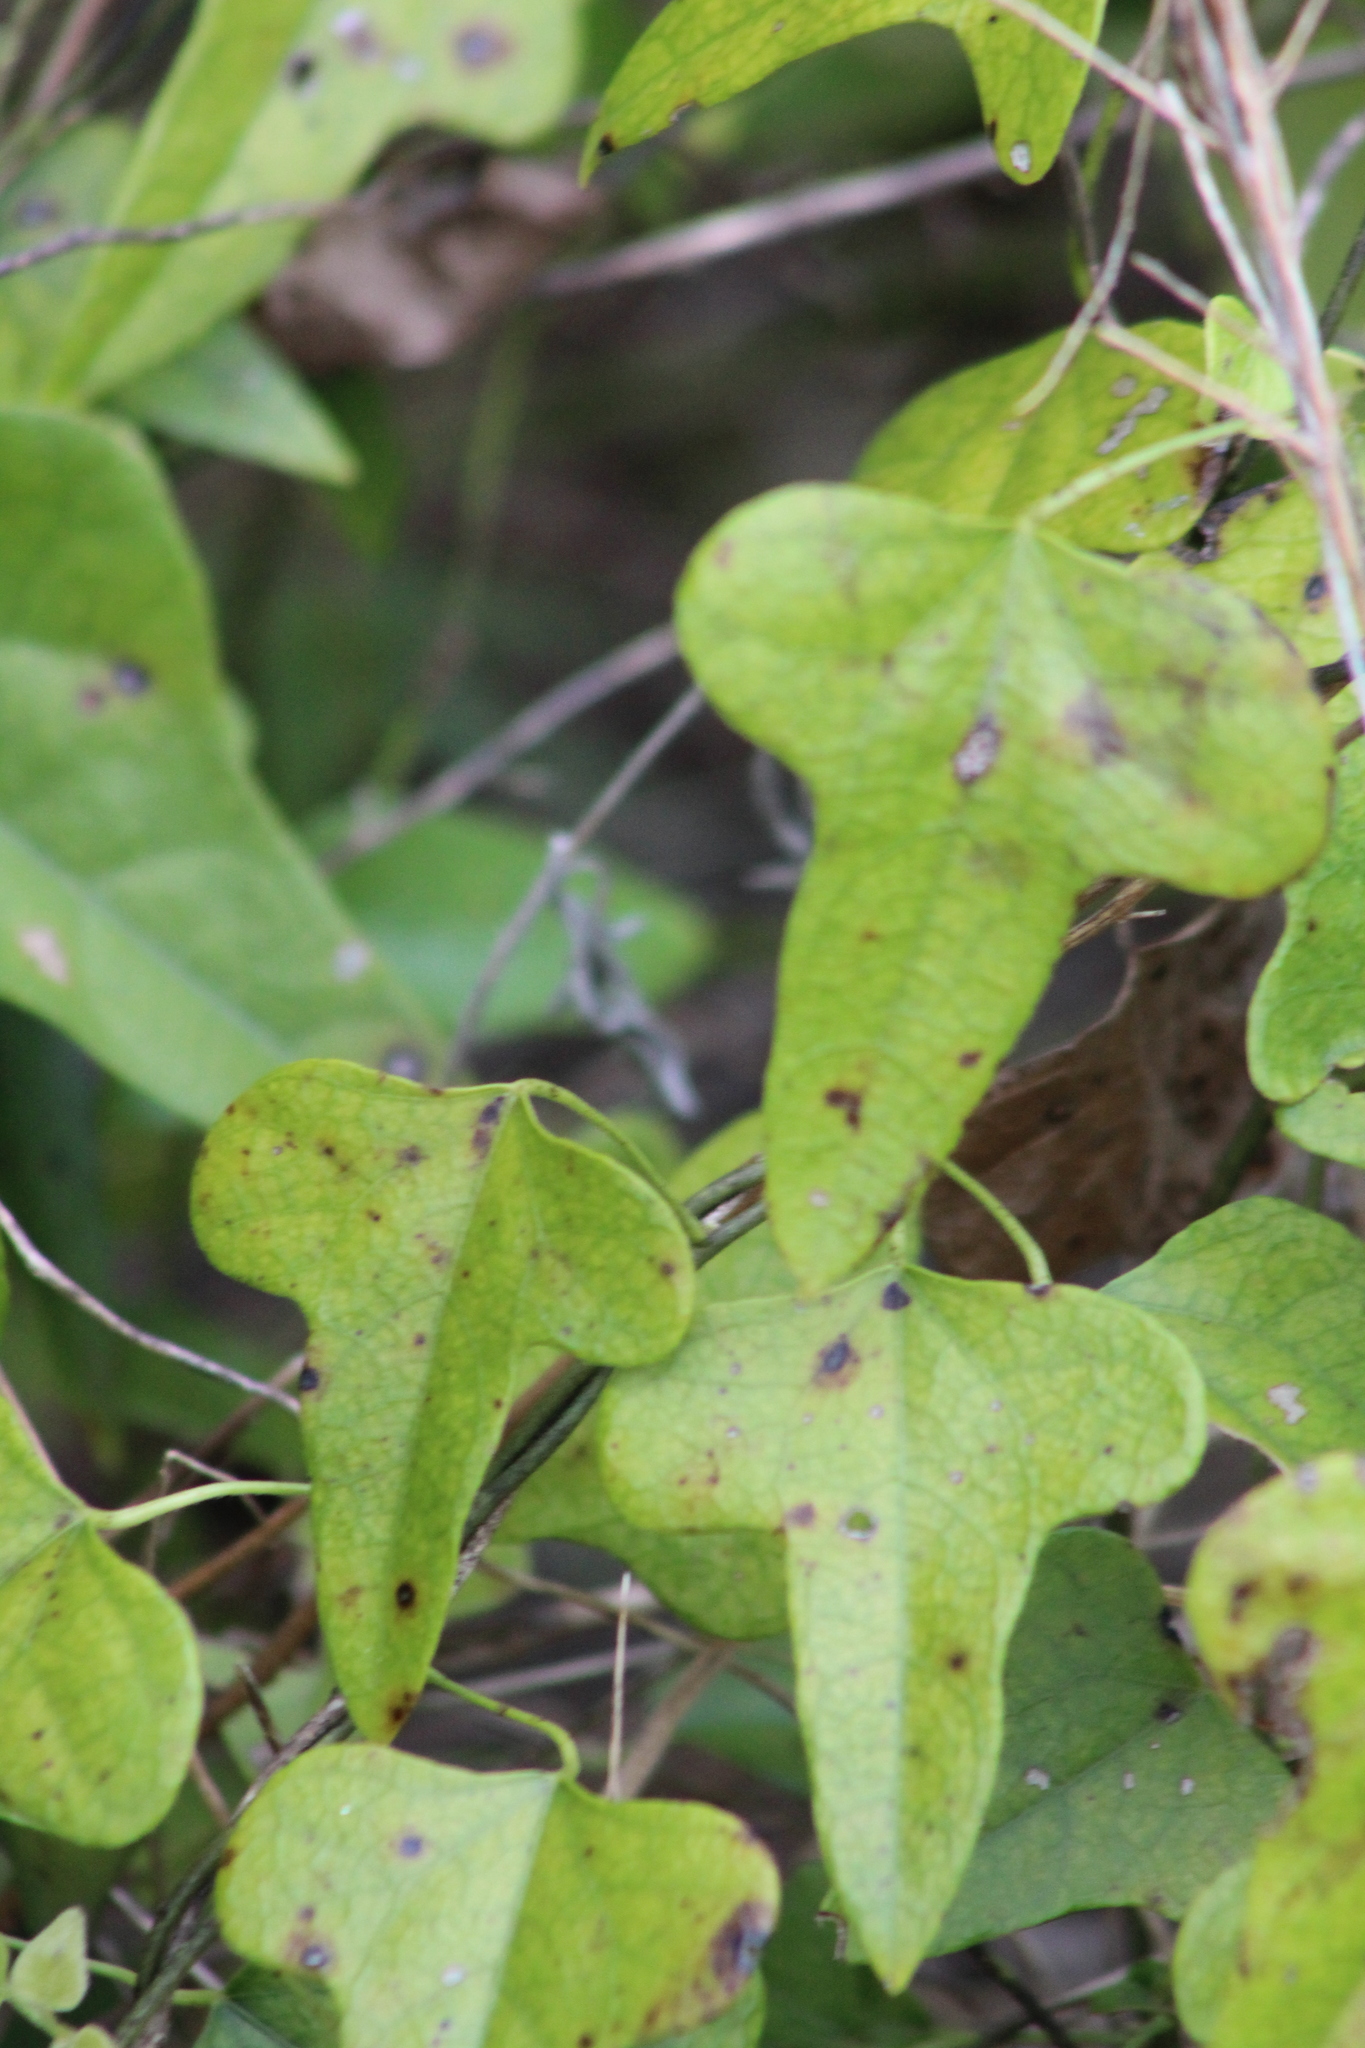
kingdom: Plantae
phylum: Tracheophyta
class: Magnoliopsida
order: Ranunculales
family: Menispermaceae
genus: Cocculus
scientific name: Cocculus carolinus
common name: Carolina moonseed
